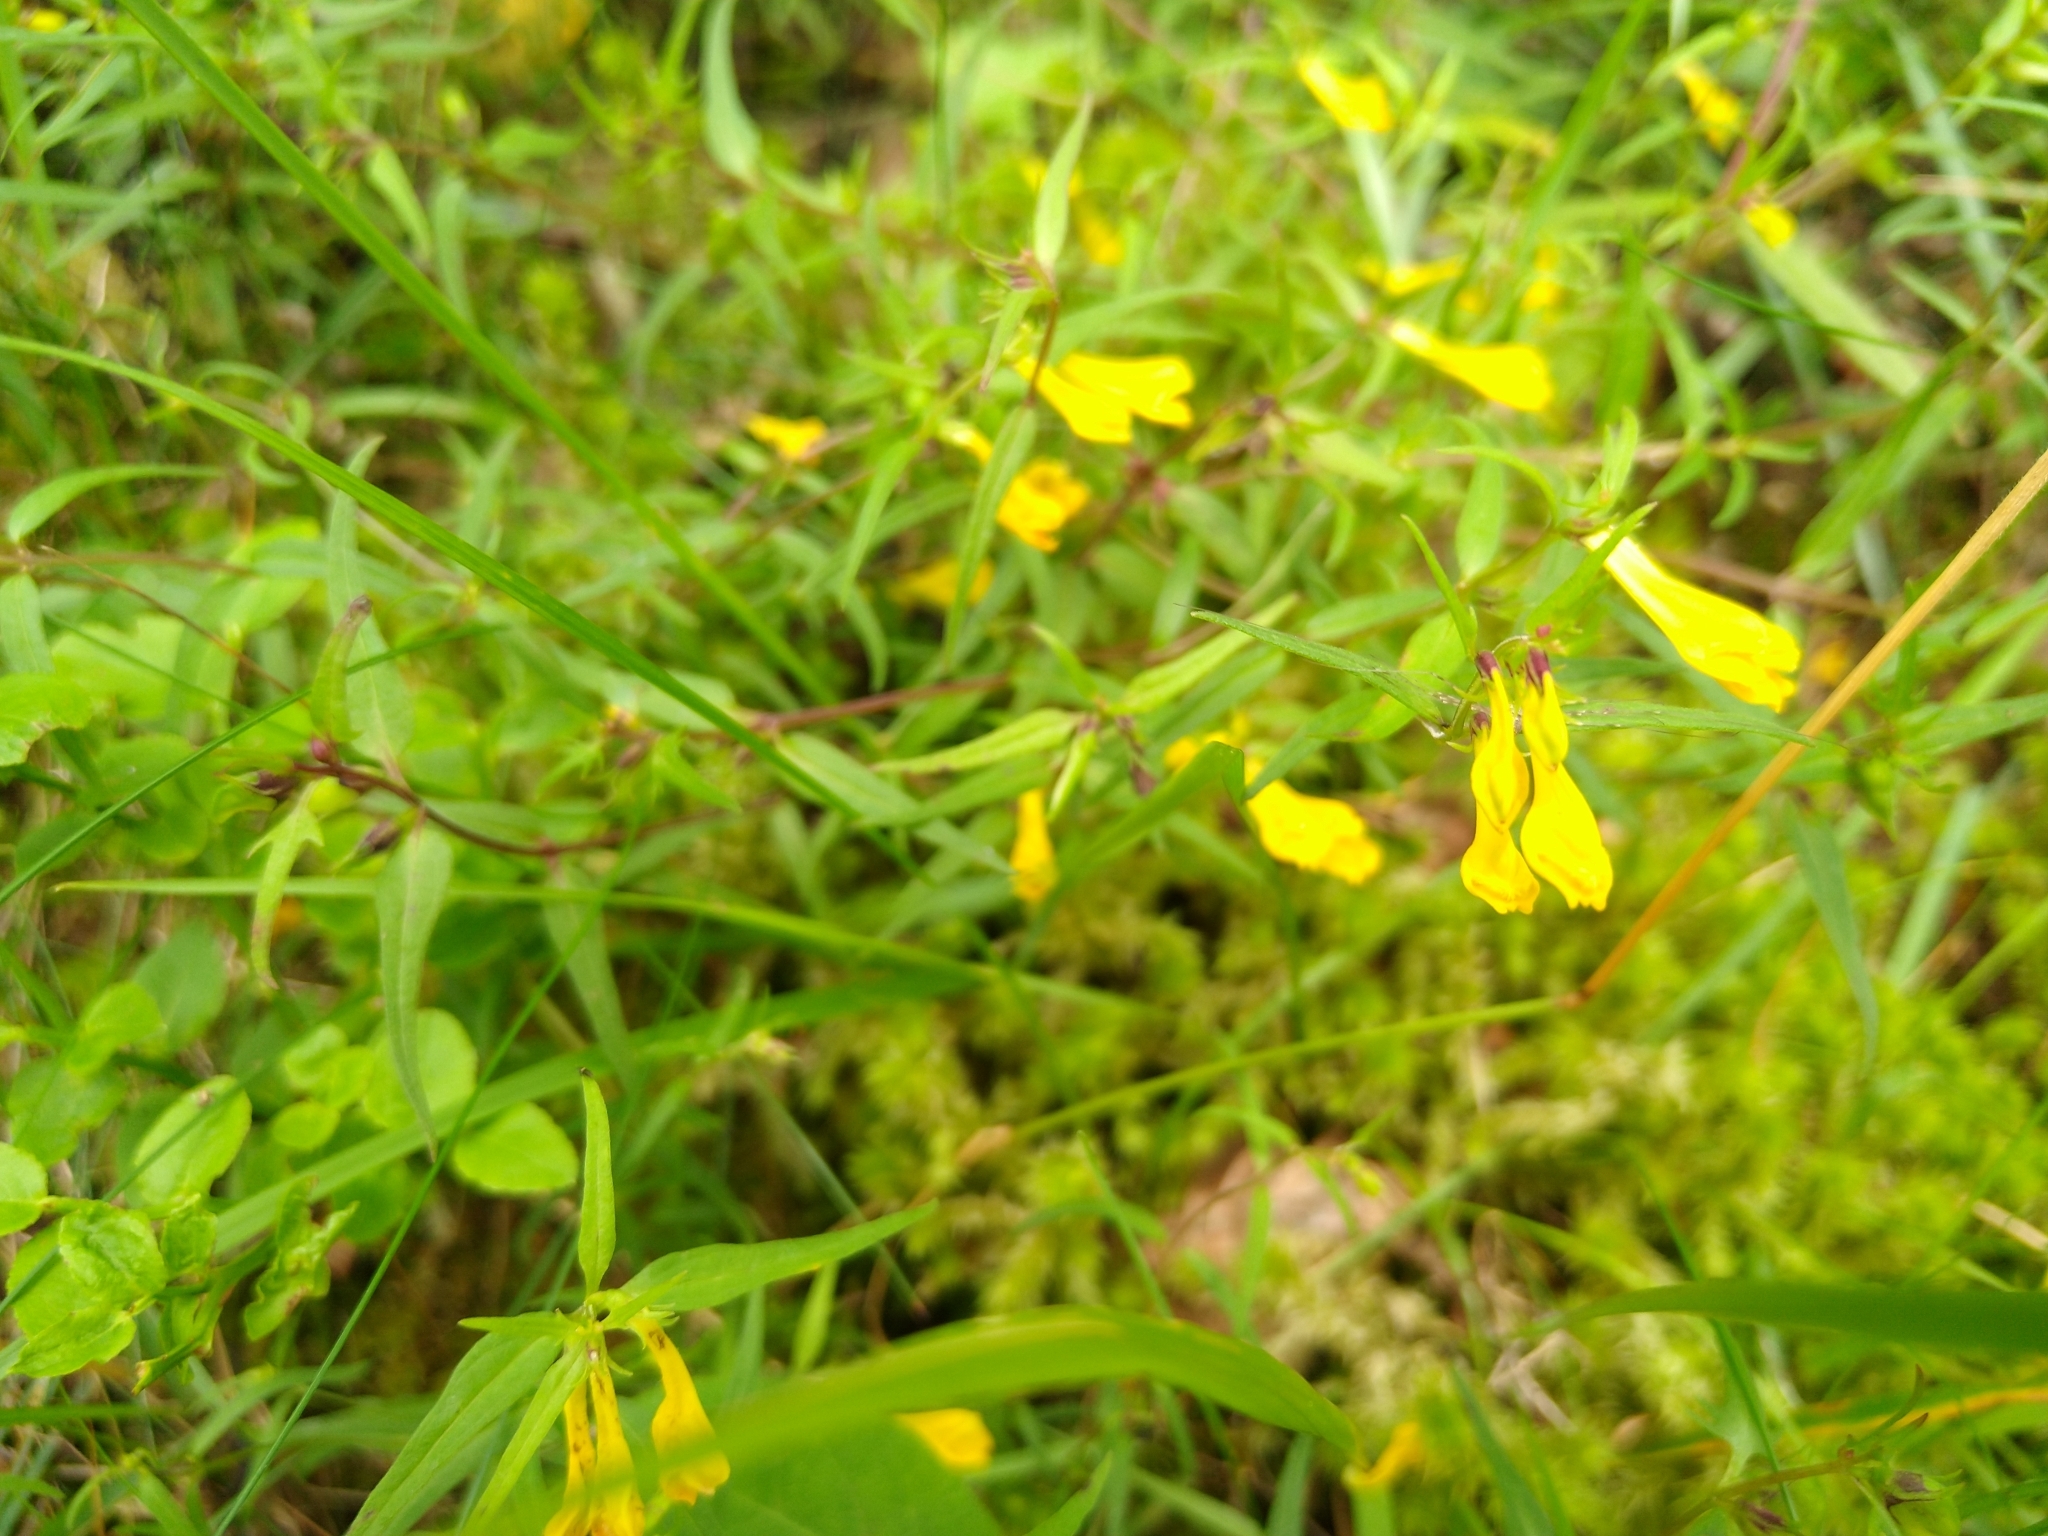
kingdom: Plantae
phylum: Tracheophyta
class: Magnoliopsida
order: Lamiales
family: Orobanchaceae
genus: Melampyrum
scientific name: Melampyrum pratense
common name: Common cow-wheat
